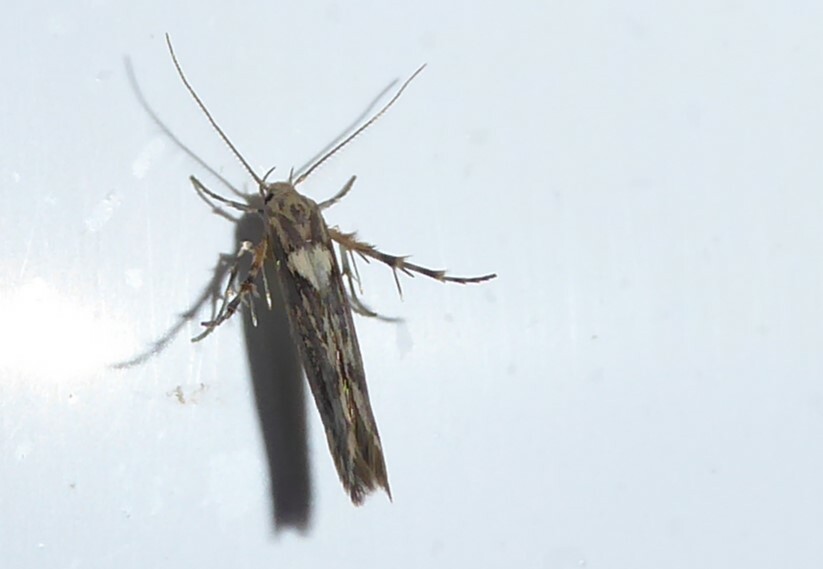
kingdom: Animalia
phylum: Arthropoda
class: Insecta
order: Lepidoptera
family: Stathmopodidae
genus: Stathmopoda
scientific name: Stathmopoda plumbiflua
